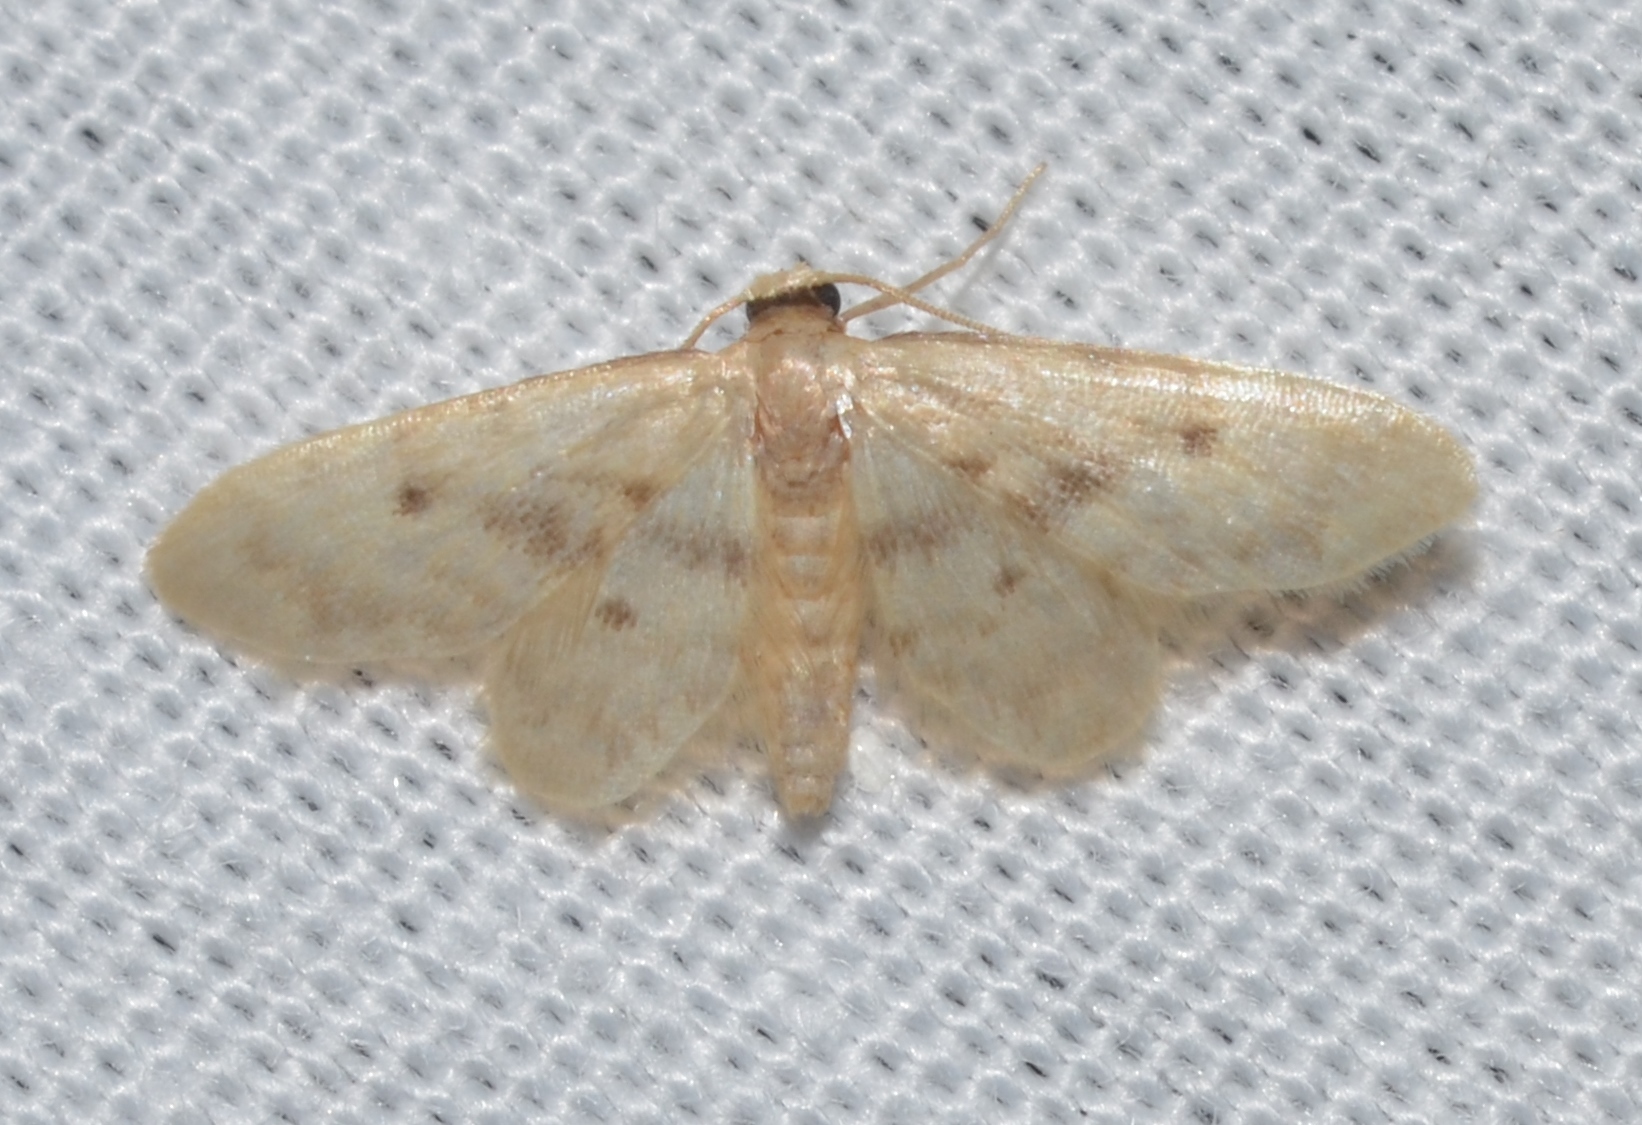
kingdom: Animalia
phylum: Arthropoda
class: Insecta
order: Lepidoptera
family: Geometridae
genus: Idaea
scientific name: Idaea
